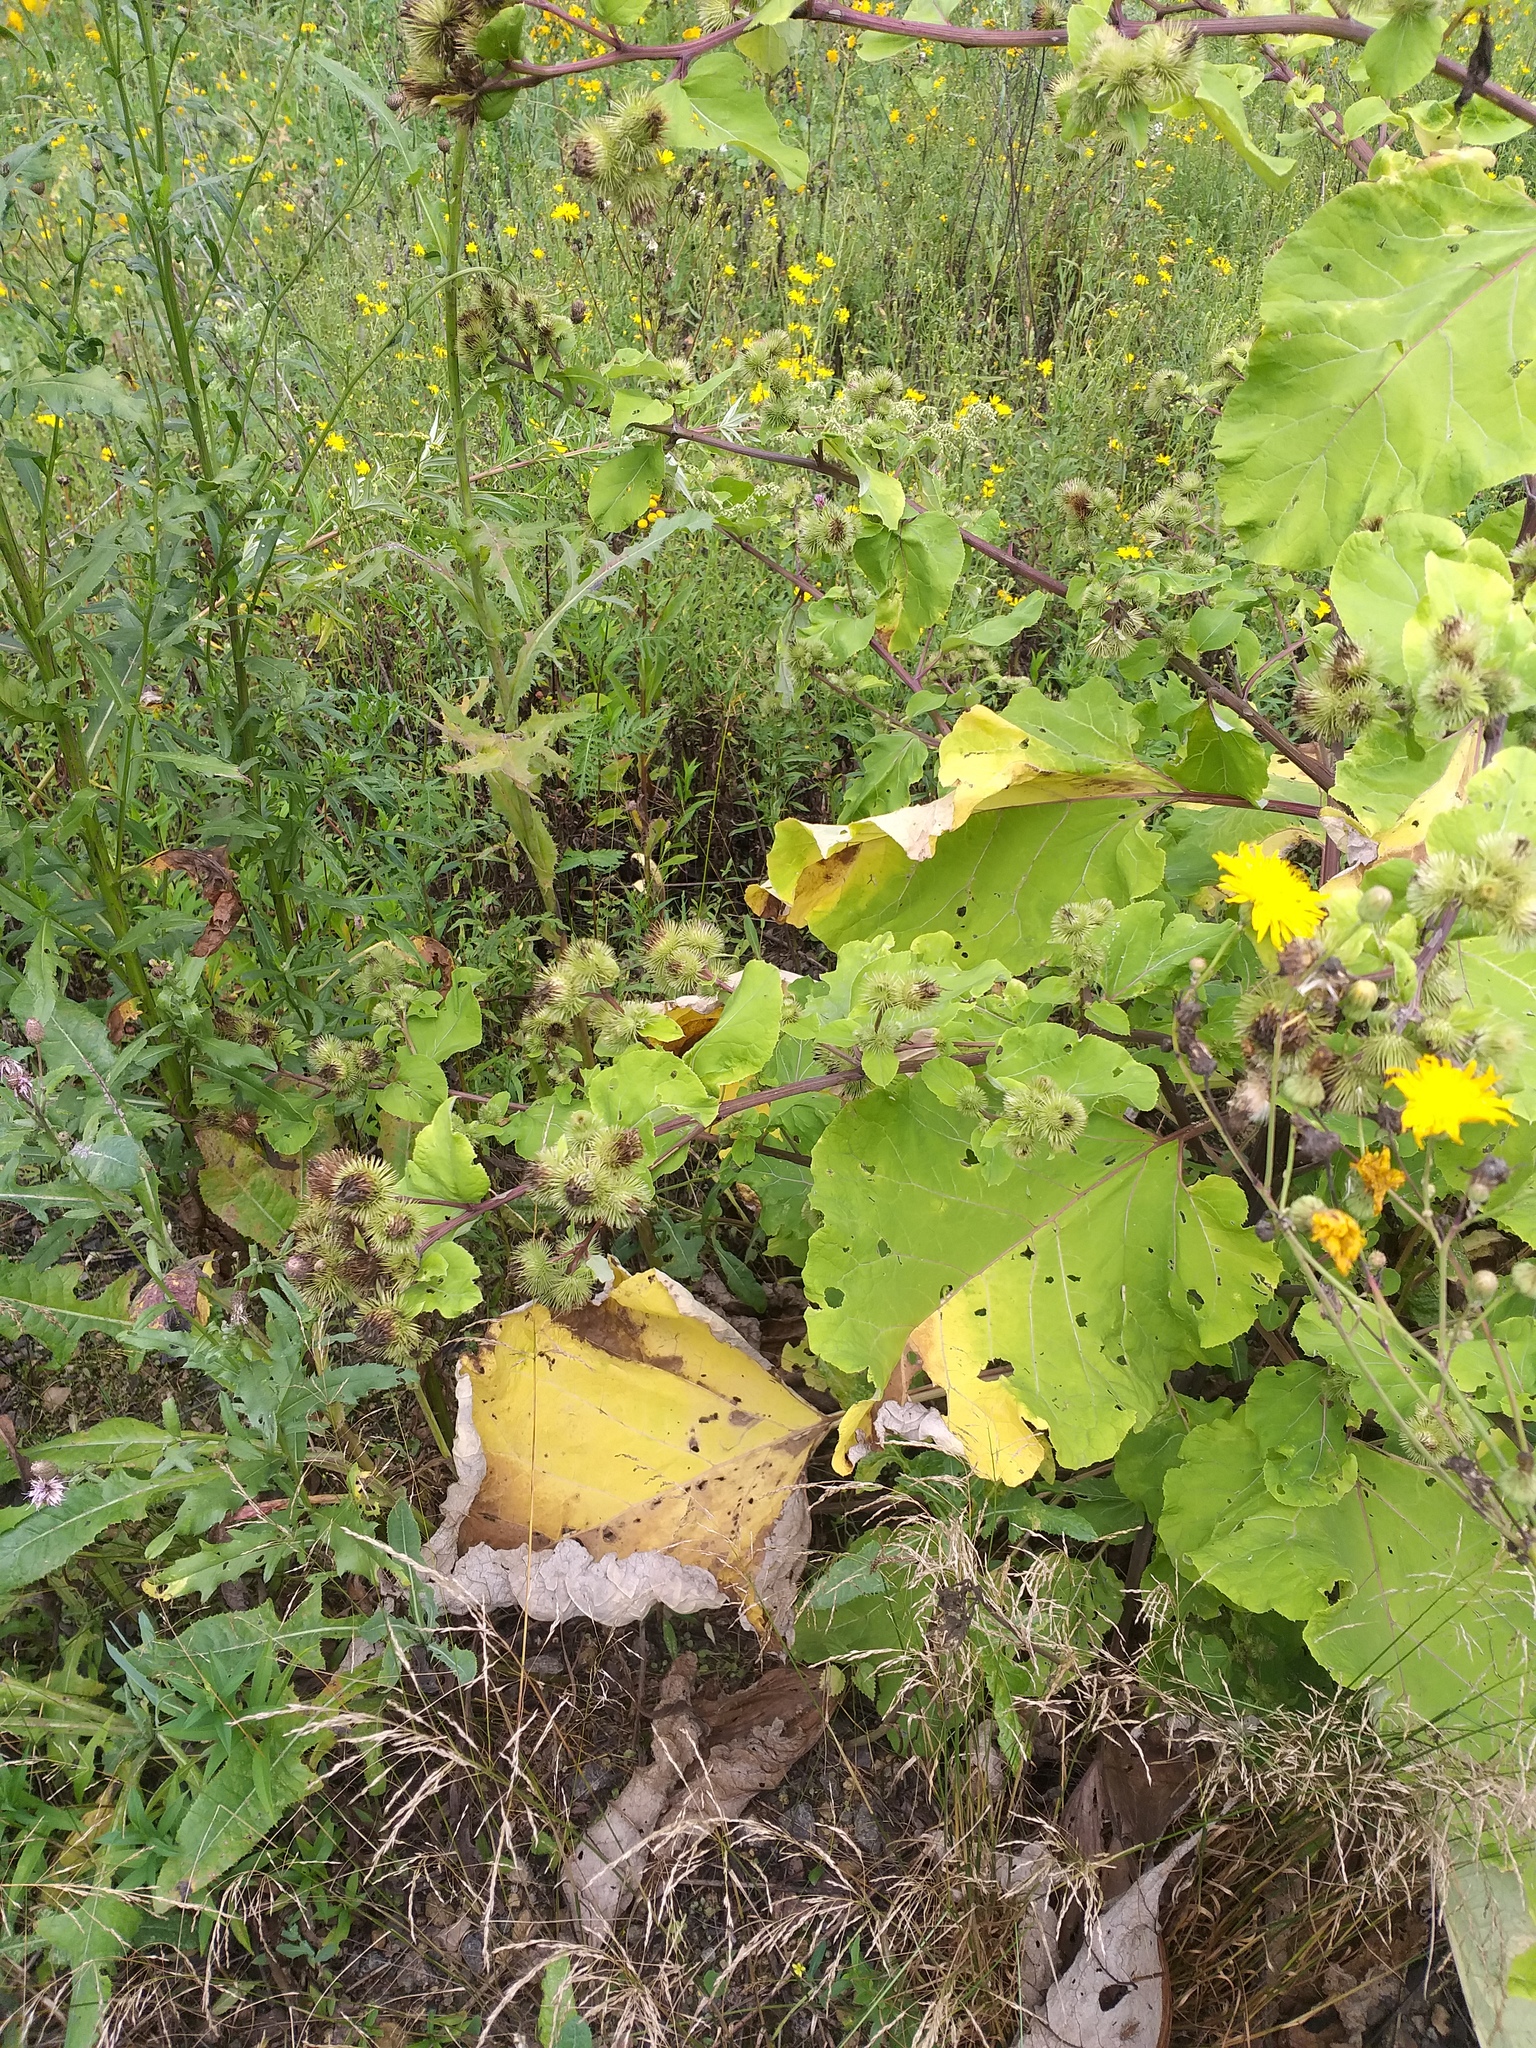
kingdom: Plantae
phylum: Tracheophyta
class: Magnoliopsida
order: Asterales
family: Asteraceae
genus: Arctium
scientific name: Arctium lappa
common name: Greater burdock
